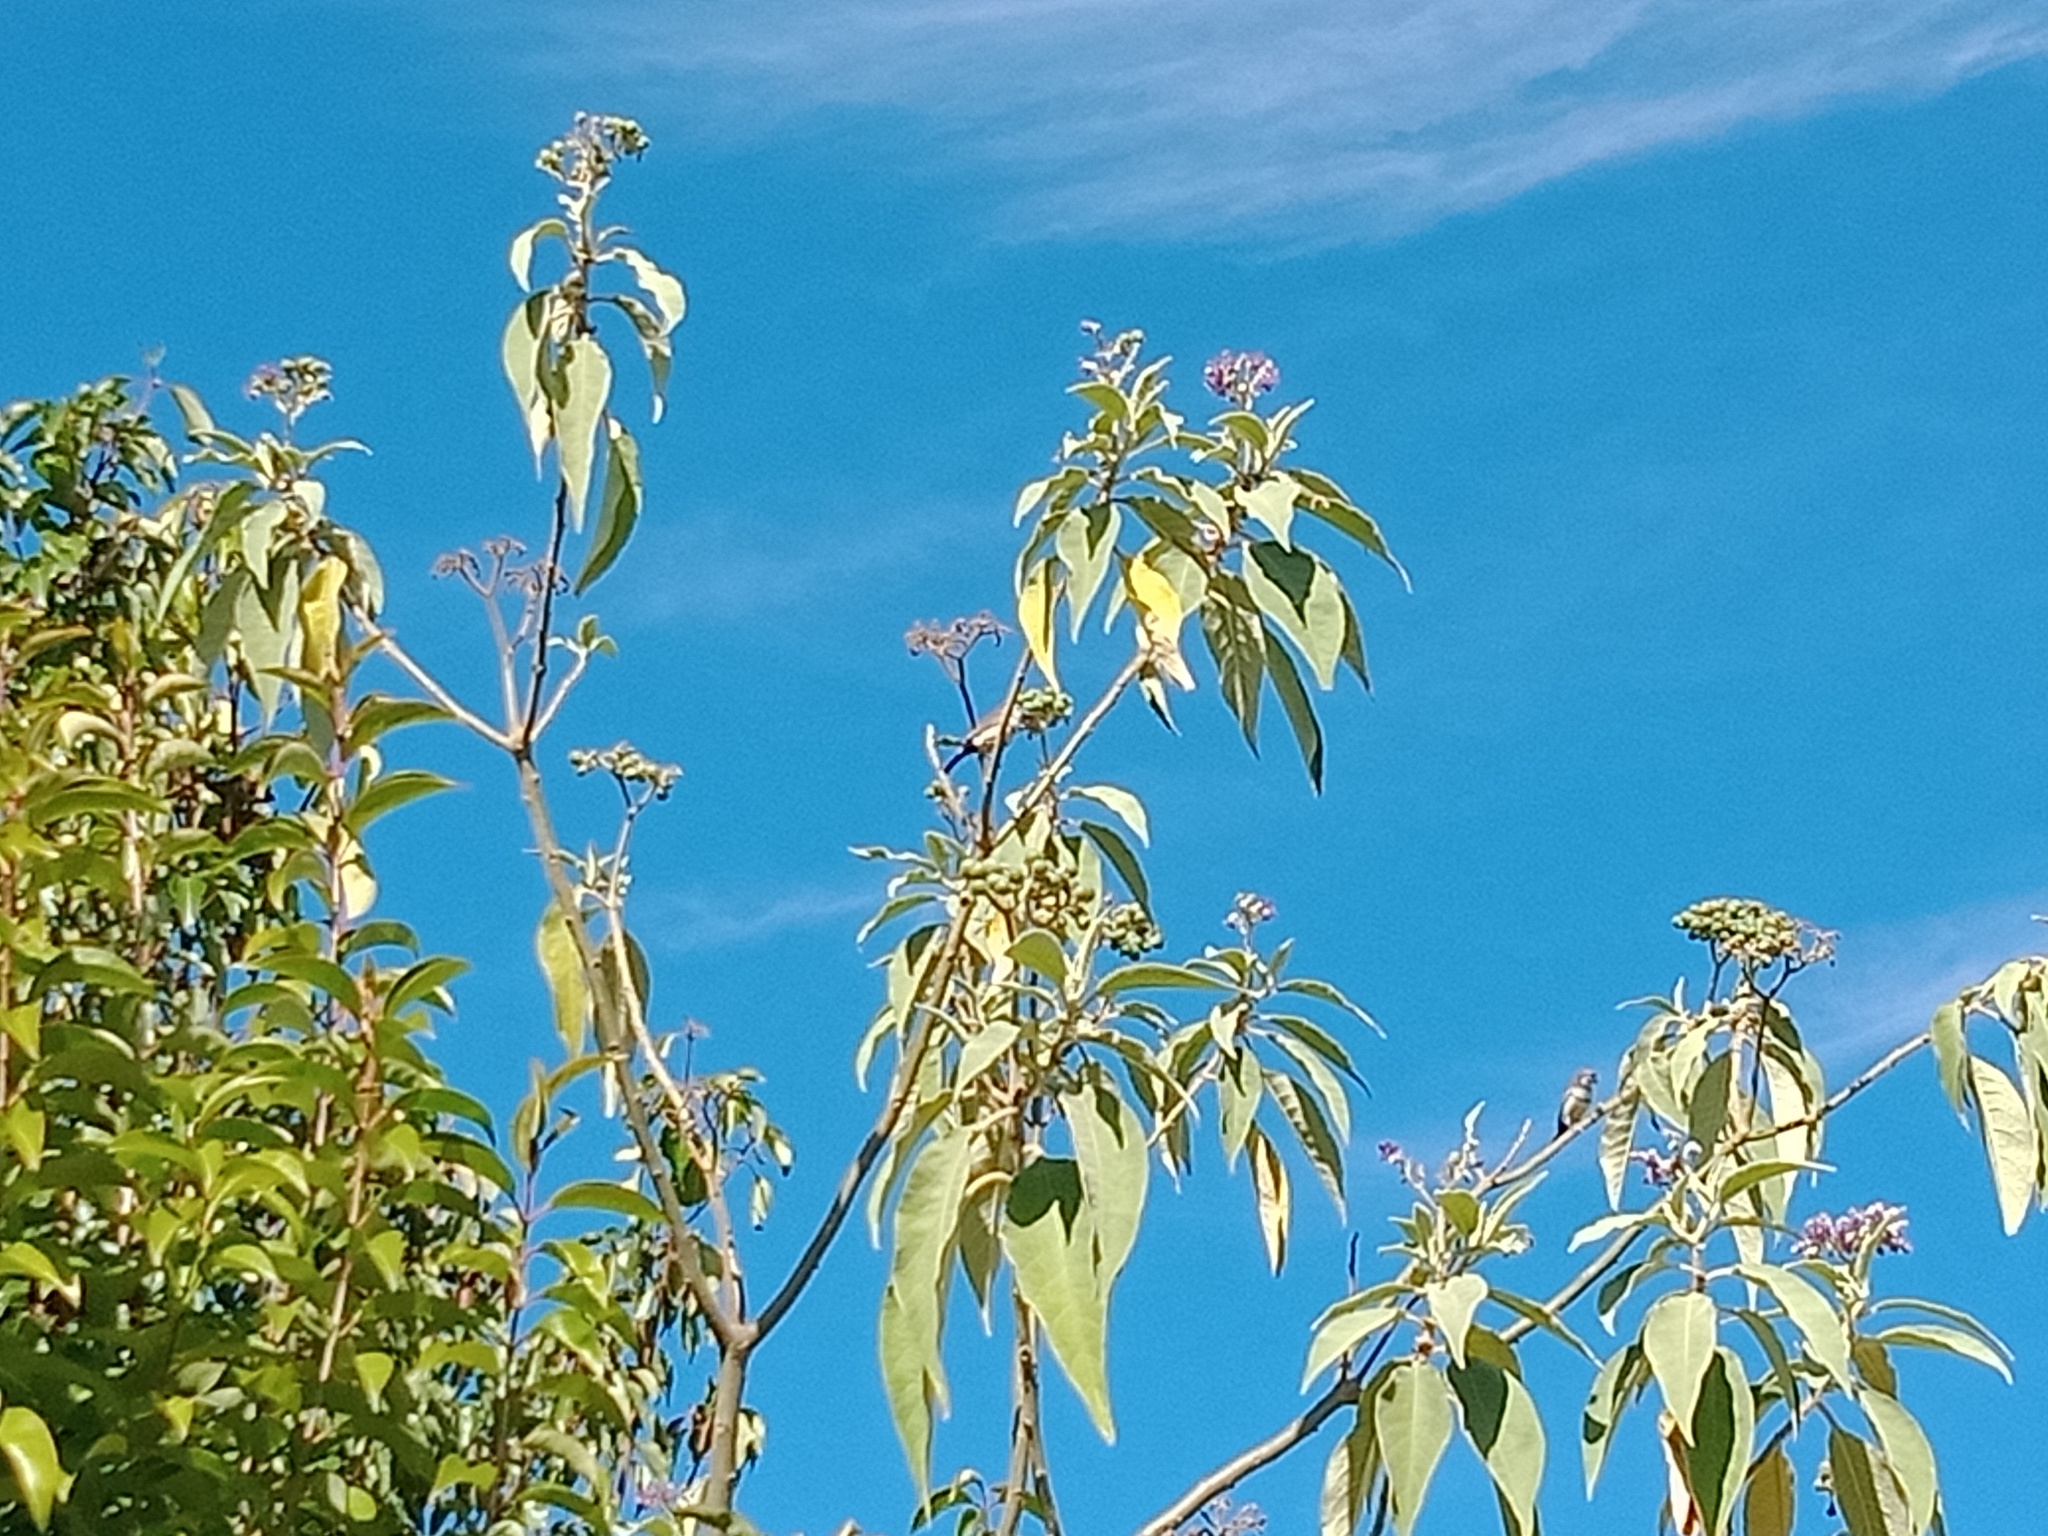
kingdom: Animalia
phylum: Chordata
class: Aves
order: Passeriformes
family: Estrildidae
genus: Taeniopygia
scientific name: Taeniopygia bichenovii
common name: Double-barred finch
